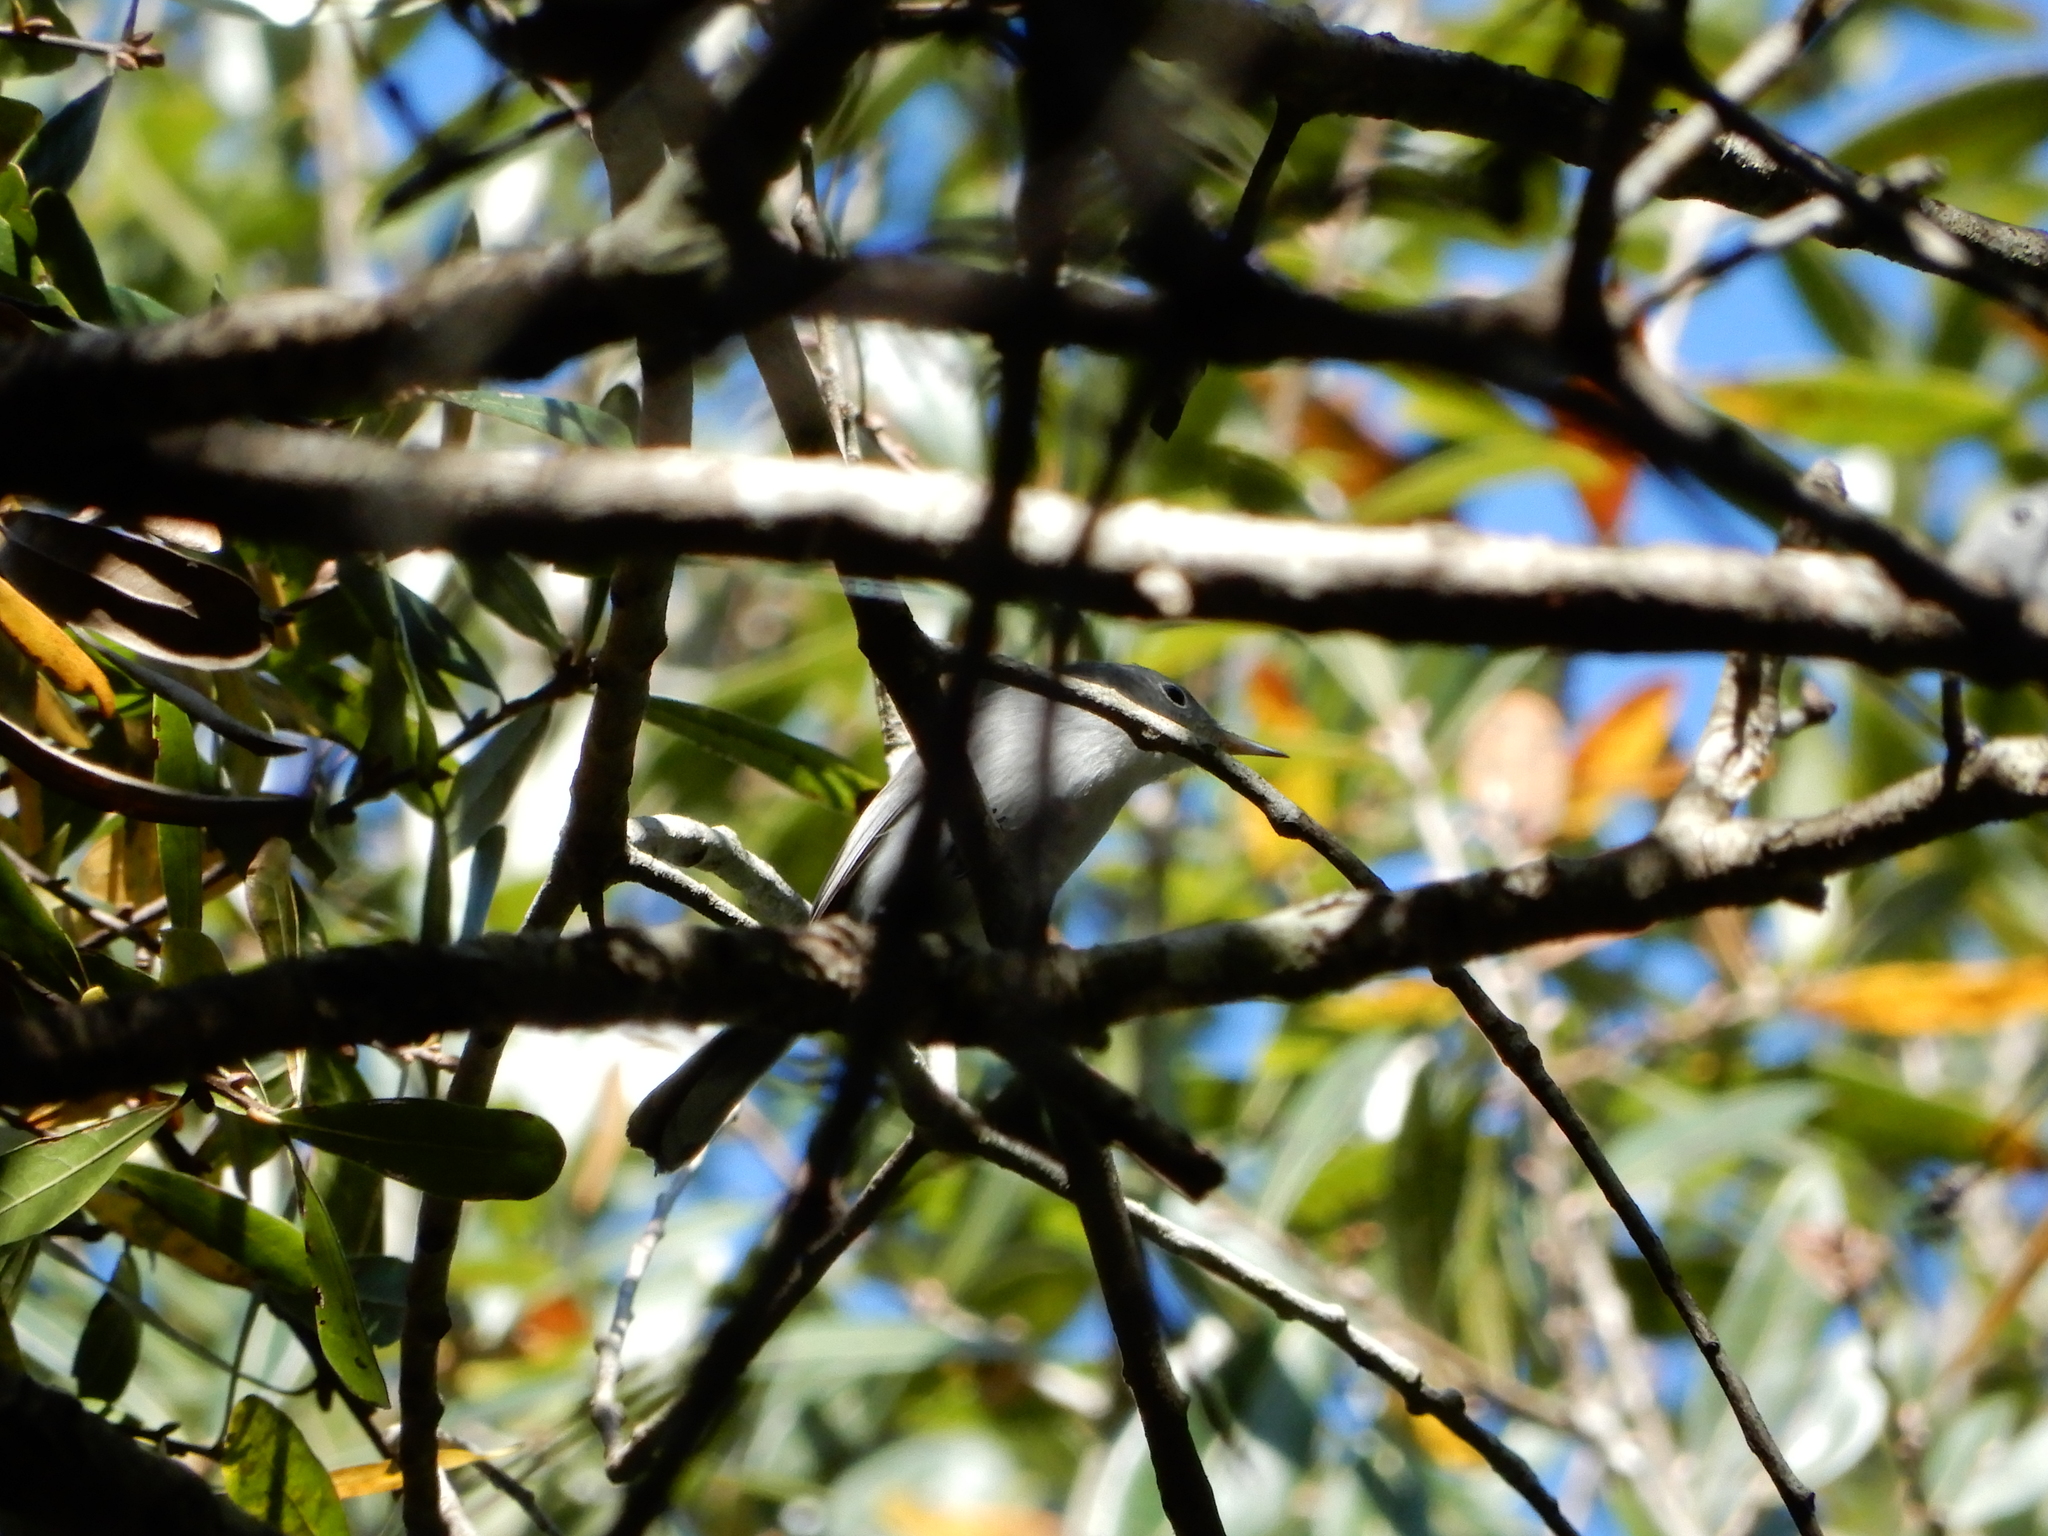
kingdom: Animalia
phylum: Chordata
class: Aves
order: Passeriformes
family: Polioptilidae
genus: Polioptila
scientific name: Polioptila caerulea
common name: Blue-gray gnatcatcher
